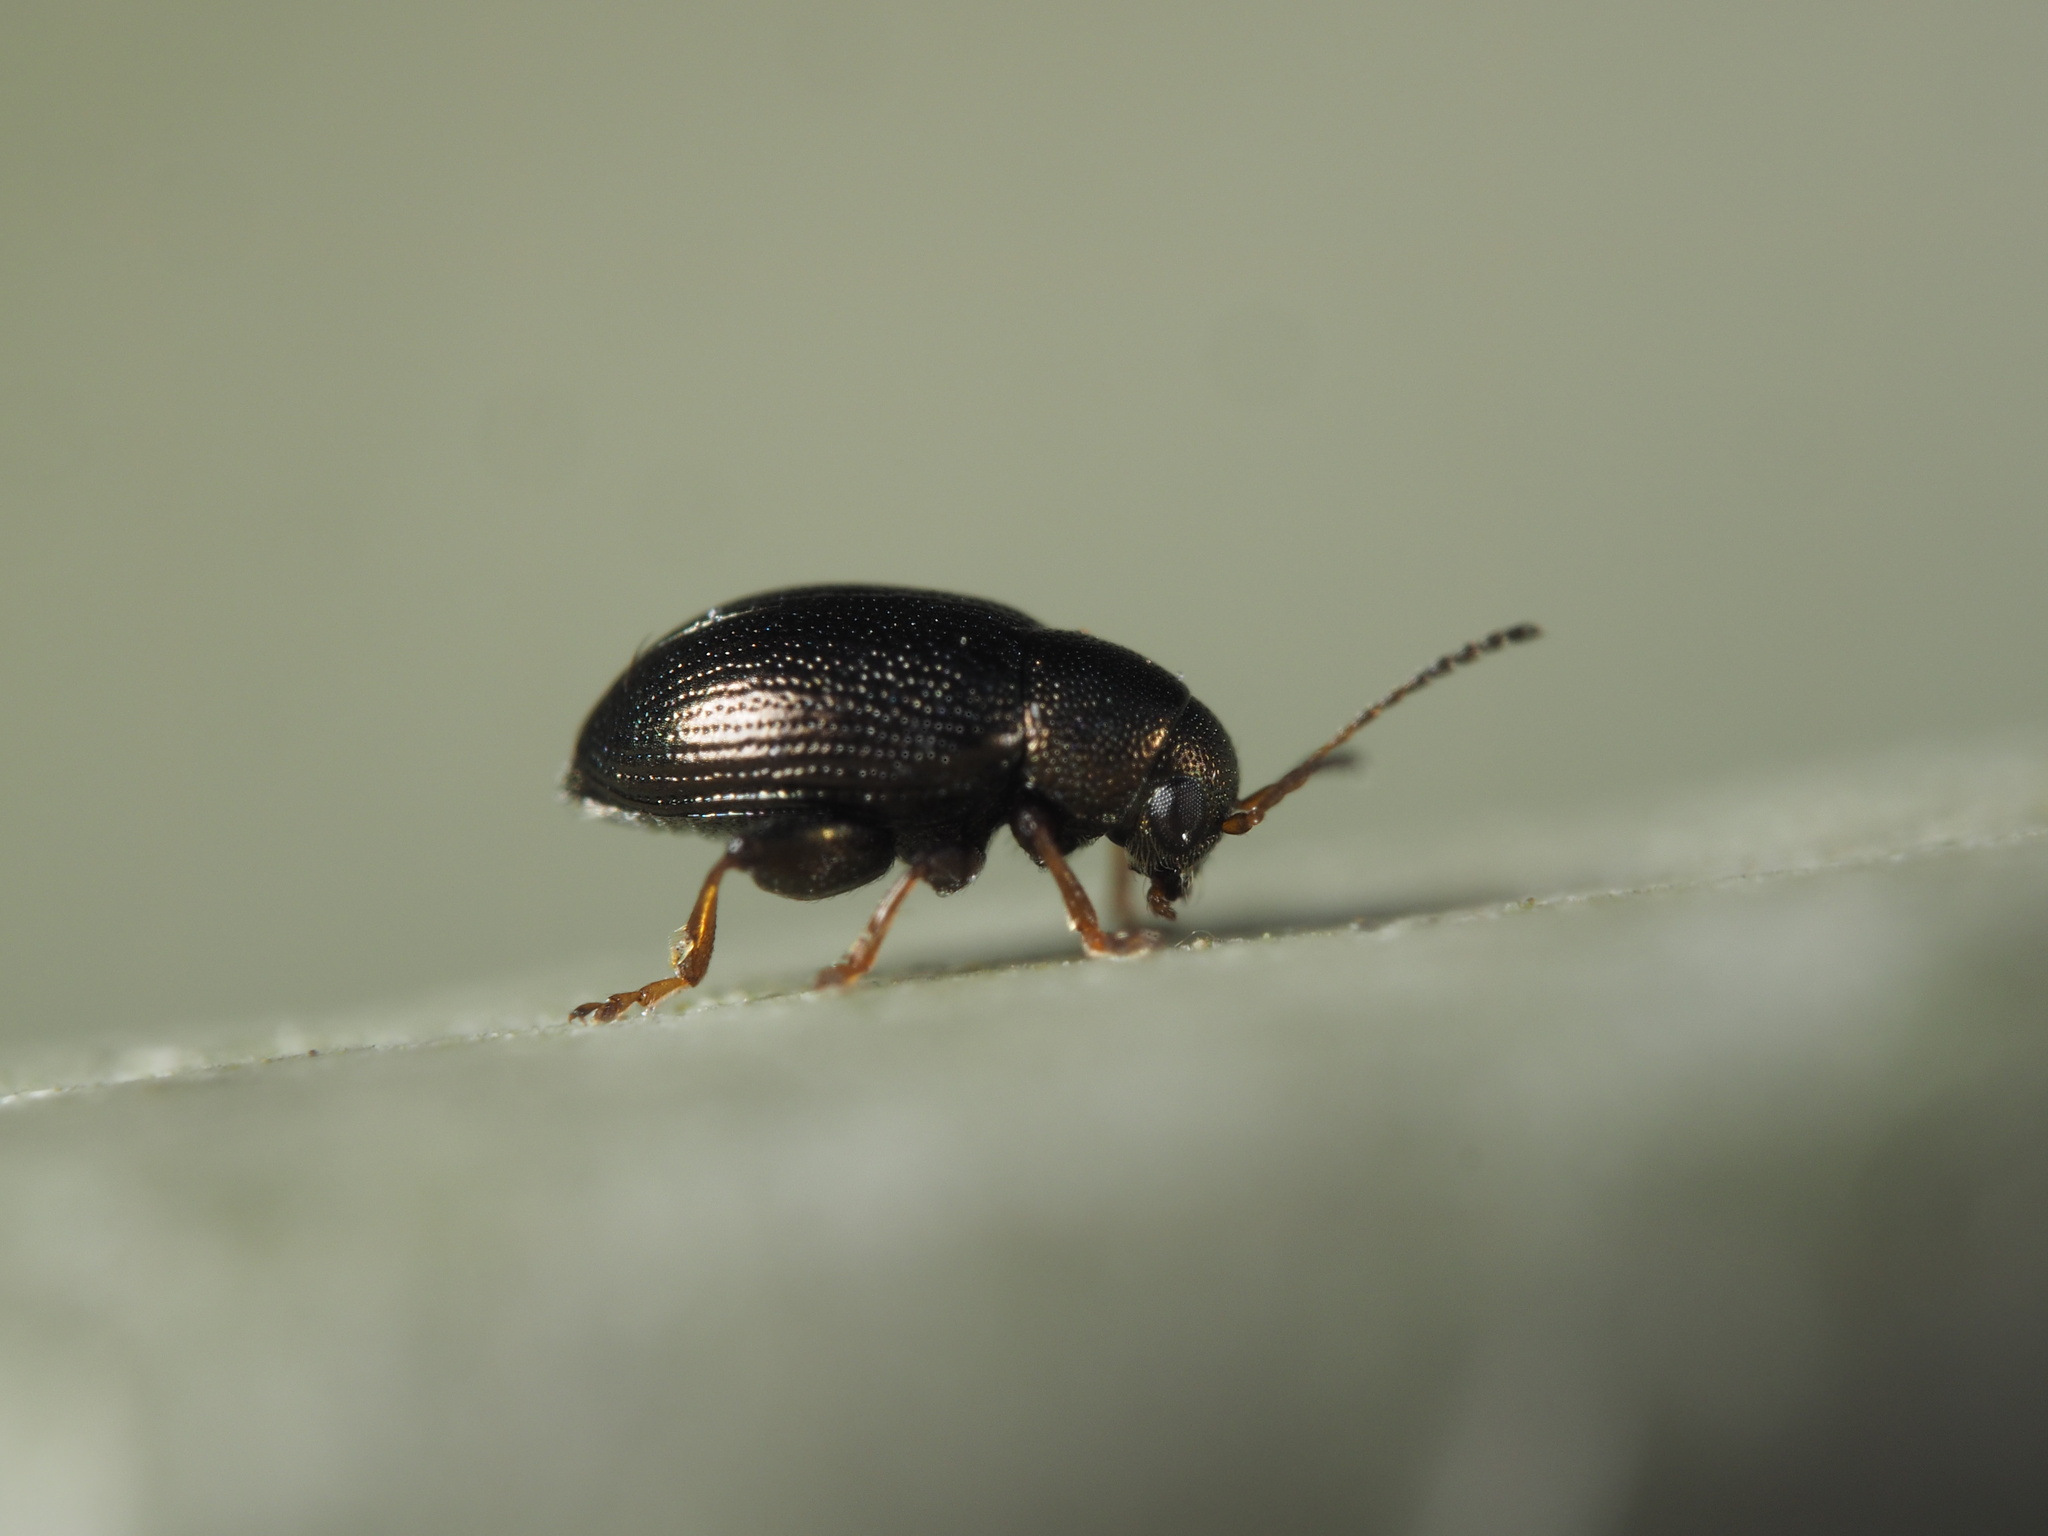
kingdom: Animalia
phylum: Arthropoda
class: Insecta
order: Coleoptera
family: Chrysomelidae
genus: Chaetocnema
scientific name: Chaetocnema hortensis
